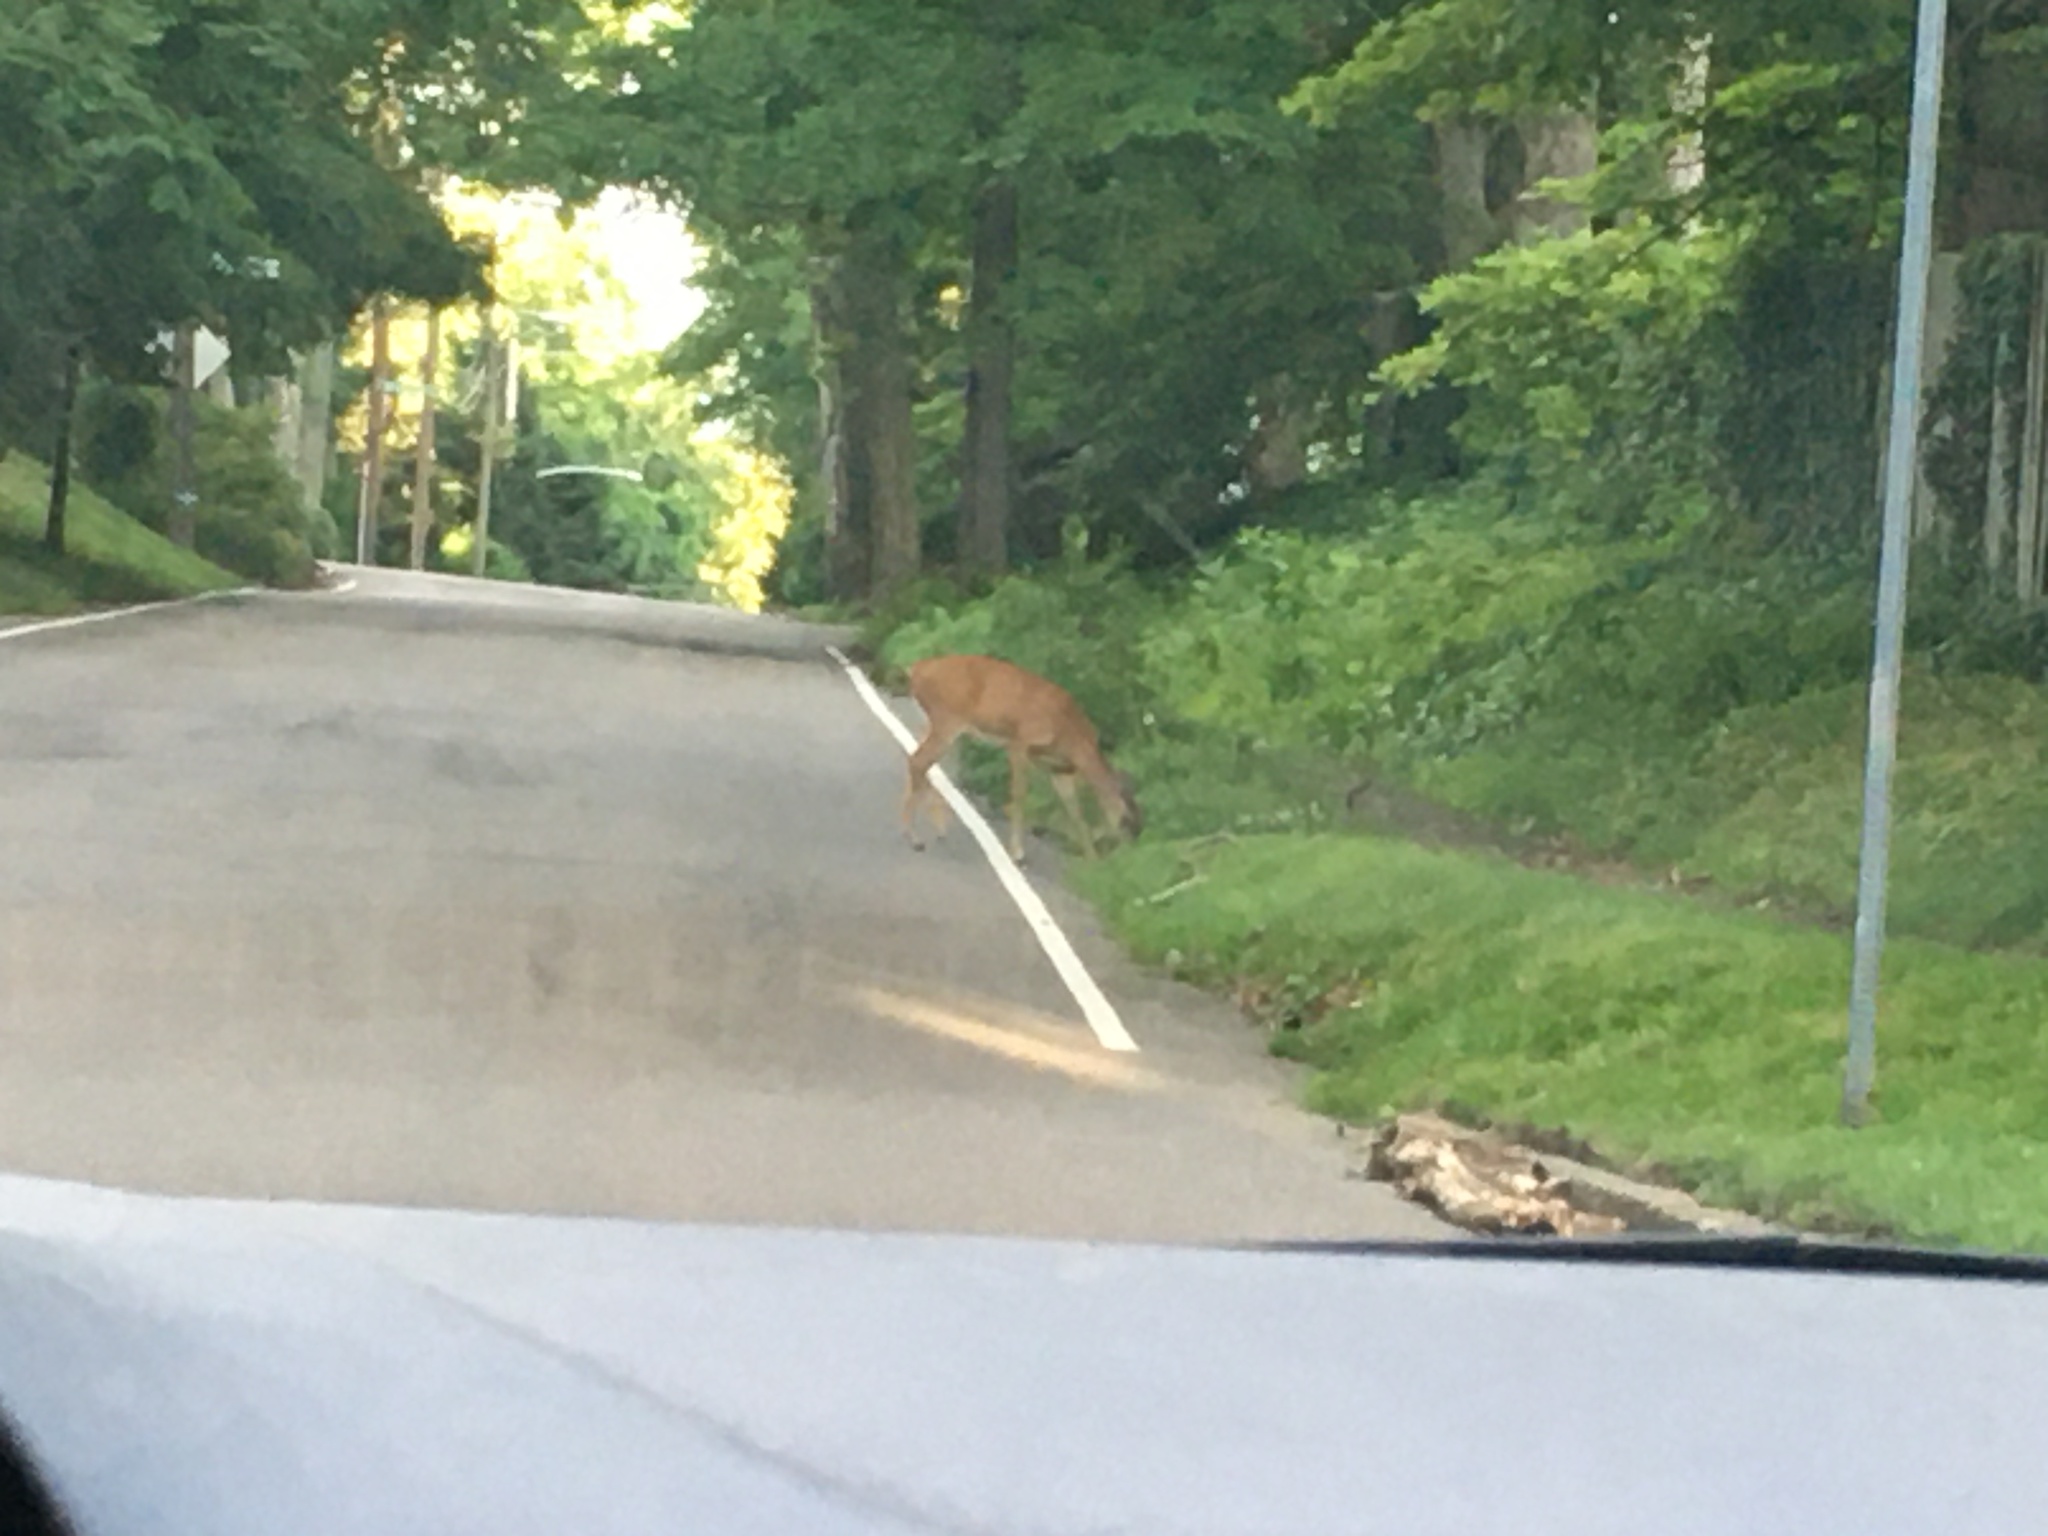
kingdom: Animalia
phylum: Chordata
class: Mammalia
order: Artiodactyla
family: Cervidae
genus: Odocoileus
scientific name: Odocoileus virginianus
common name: White-tailed deer
